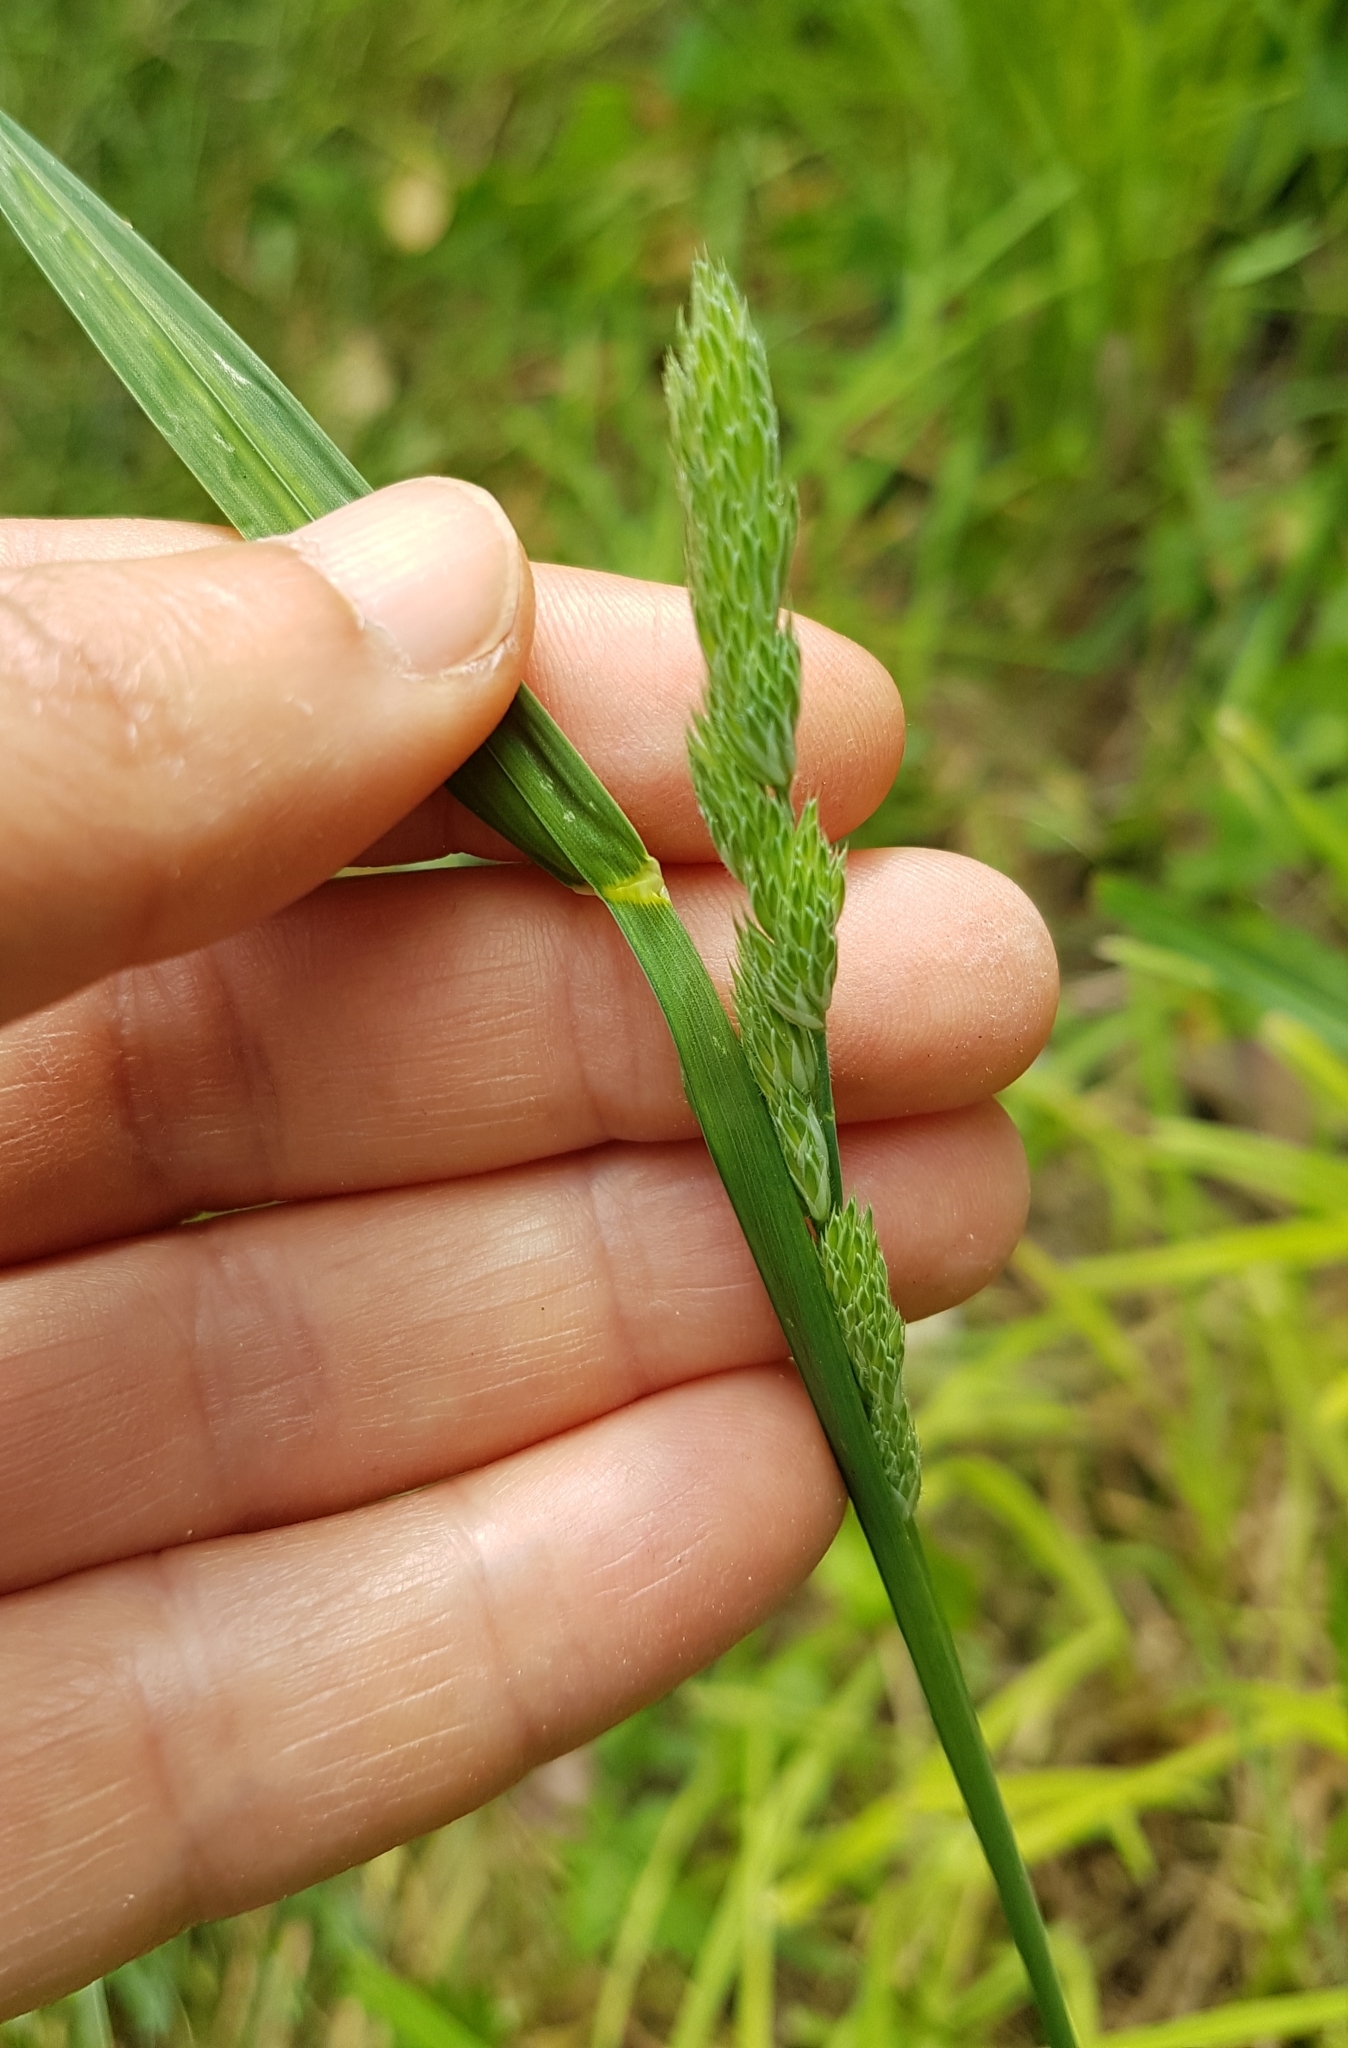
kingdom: Plantae
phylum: Tracheophyta
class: Liliopsida
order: Poales
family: Poaceae
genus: Dactylis
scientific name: Dactylis glomerata
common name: Orchardgrass
